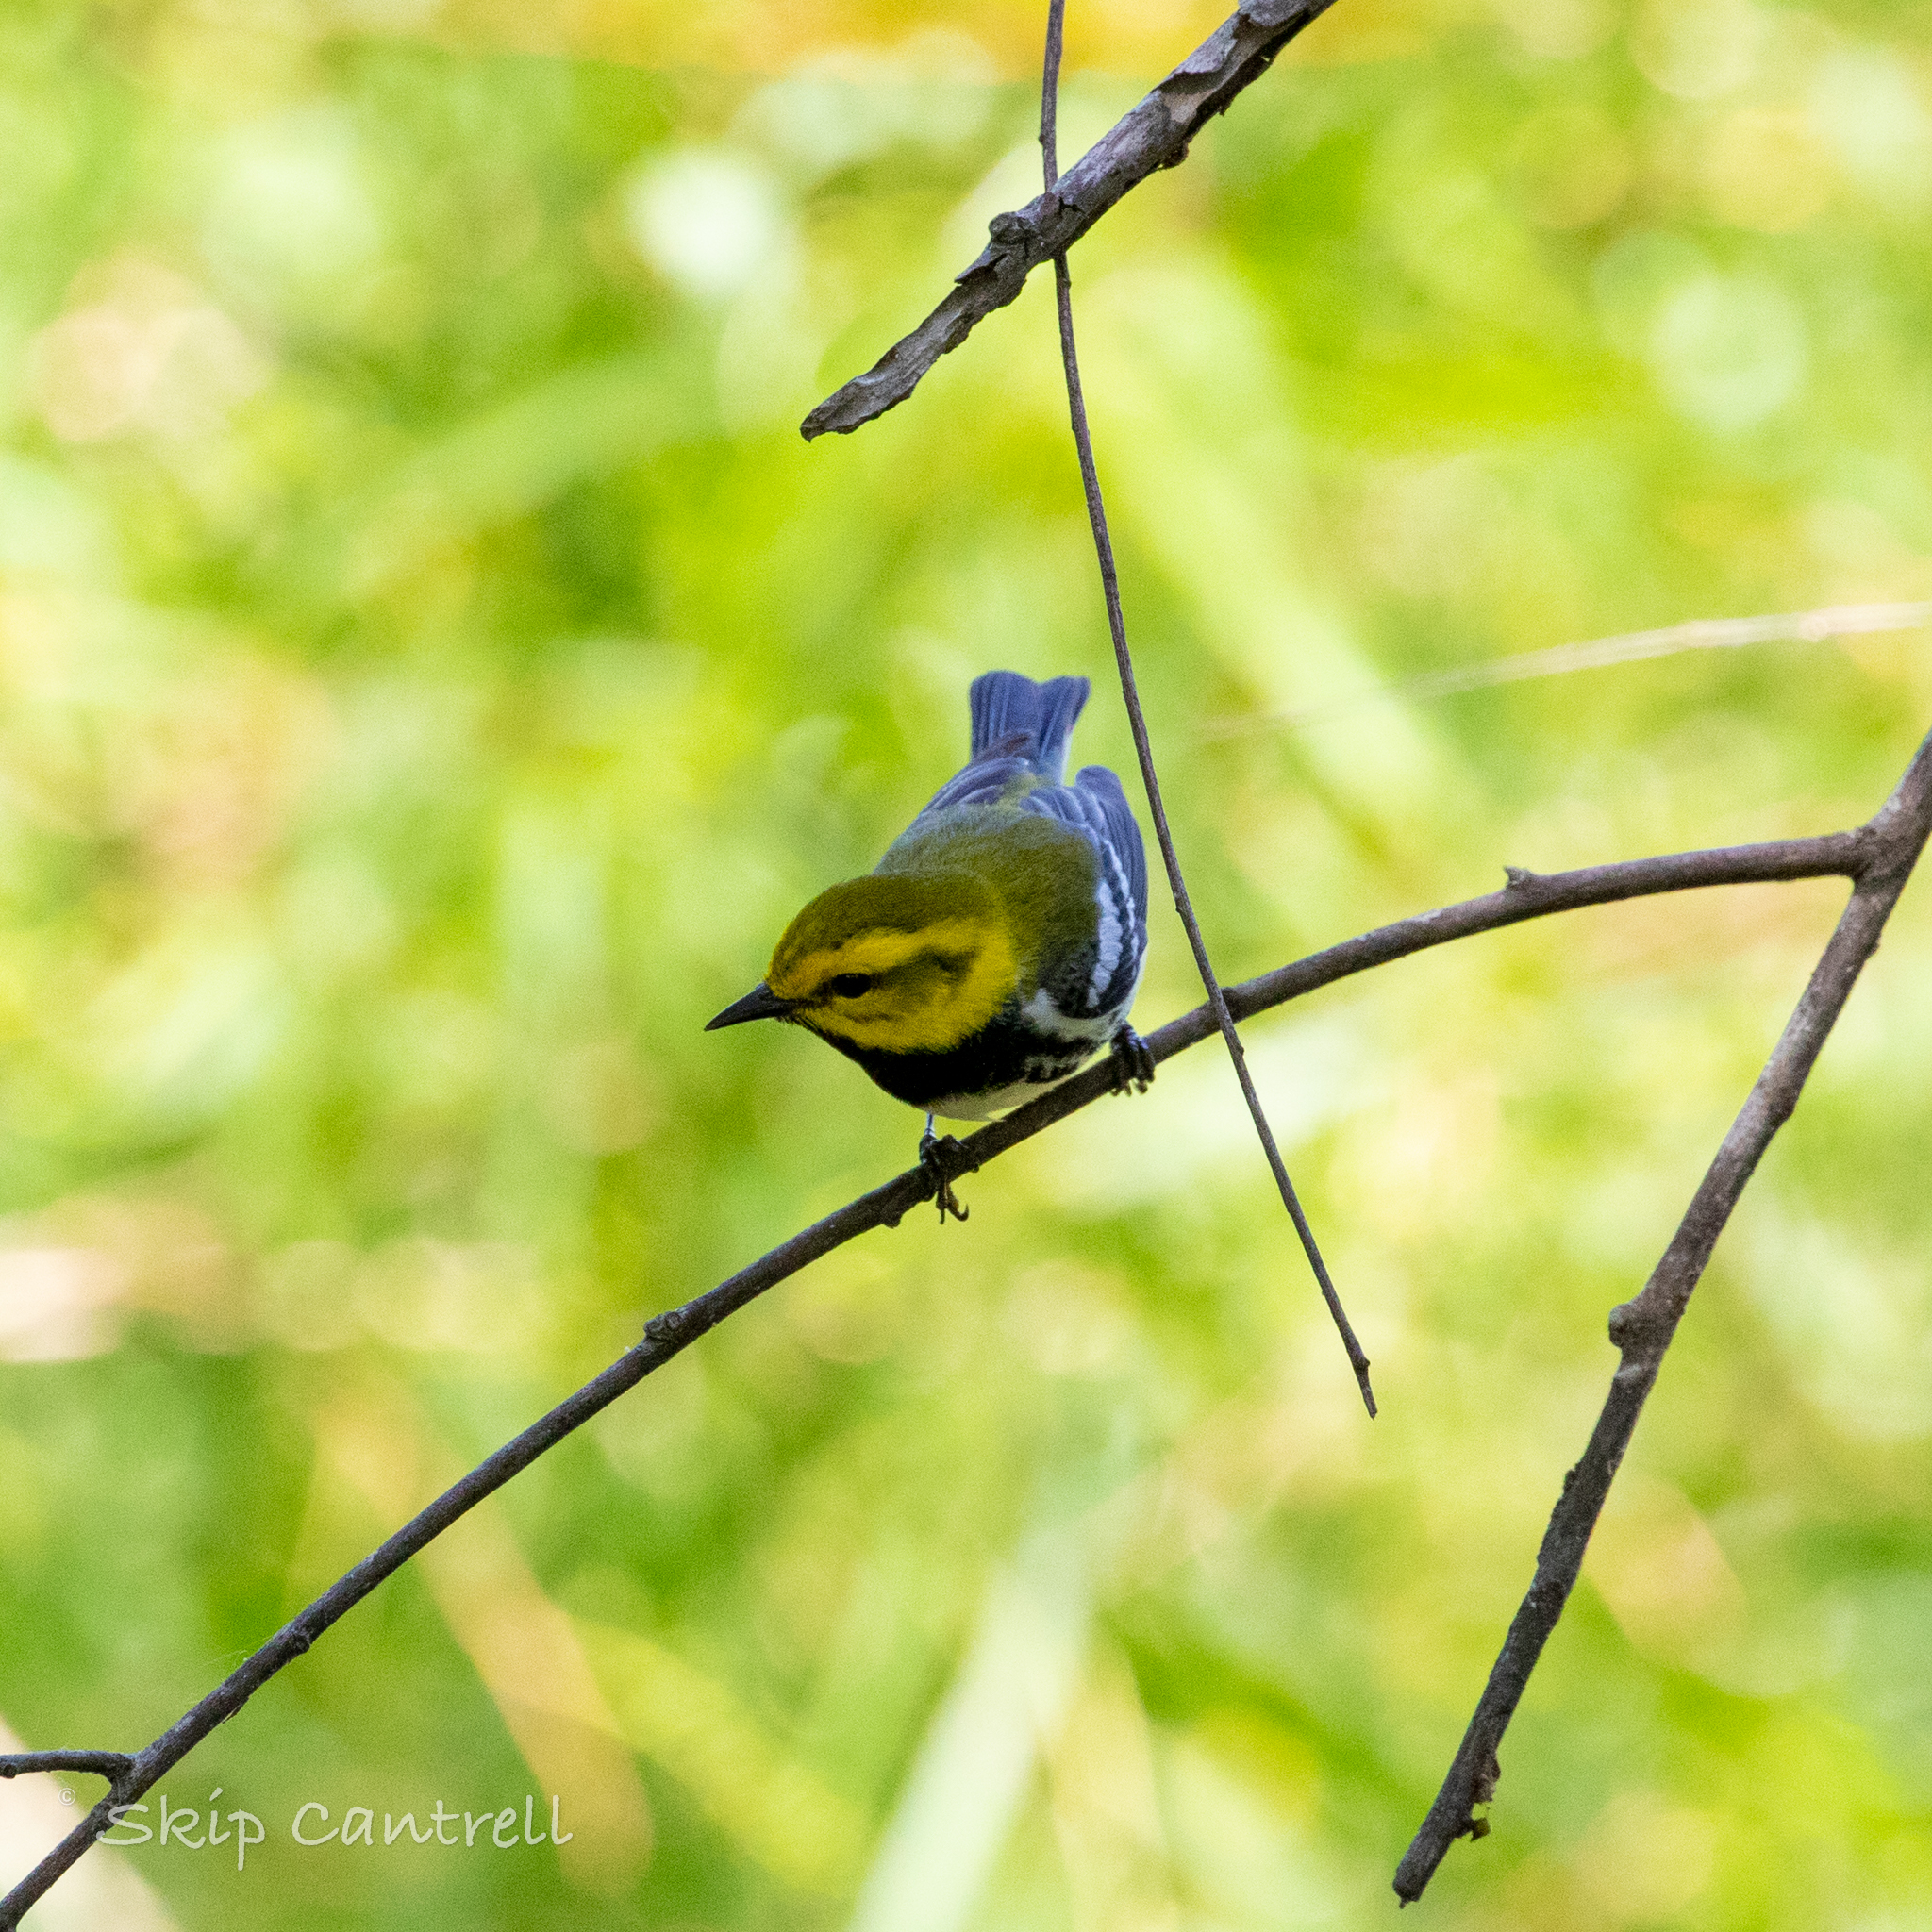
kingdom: Animalia
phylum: Chordata
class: Aves
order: Passeriformes
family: Parulidae
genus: Setophaga
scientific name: Setophaga virens
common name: Black-throated green warbler
